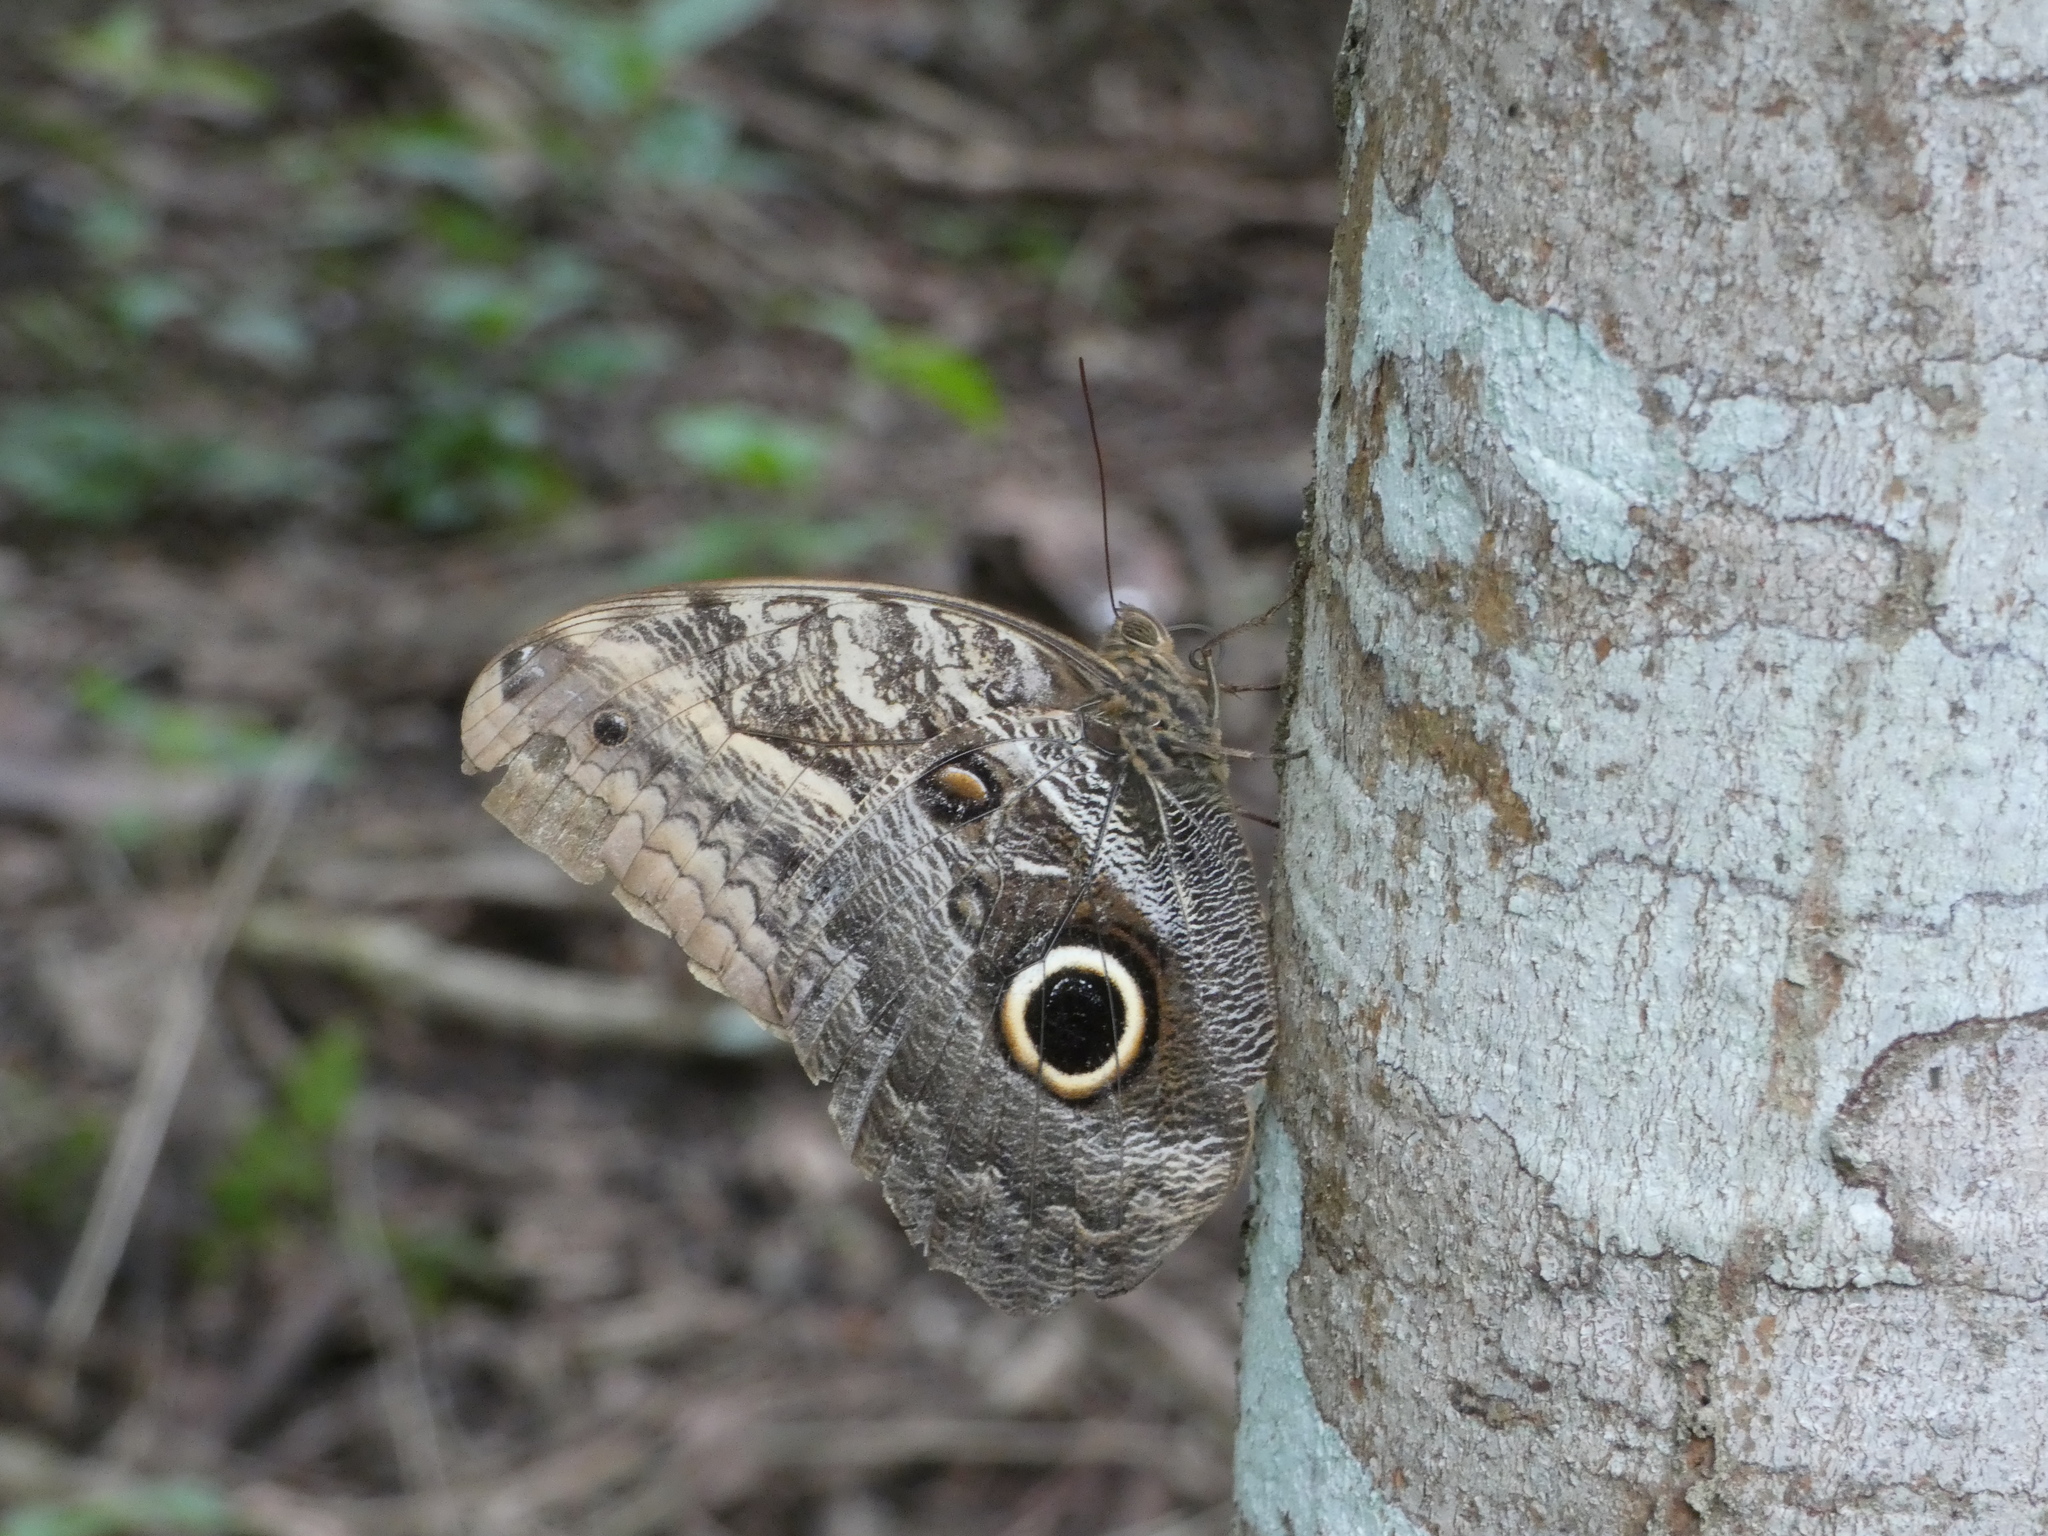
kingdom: Animalia
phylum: Arthropoda
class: Insecta
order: Lepidoptera
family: Nymphalidae
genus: Caligo
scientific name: Caligo teucer
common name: Teucer owl butterfly
